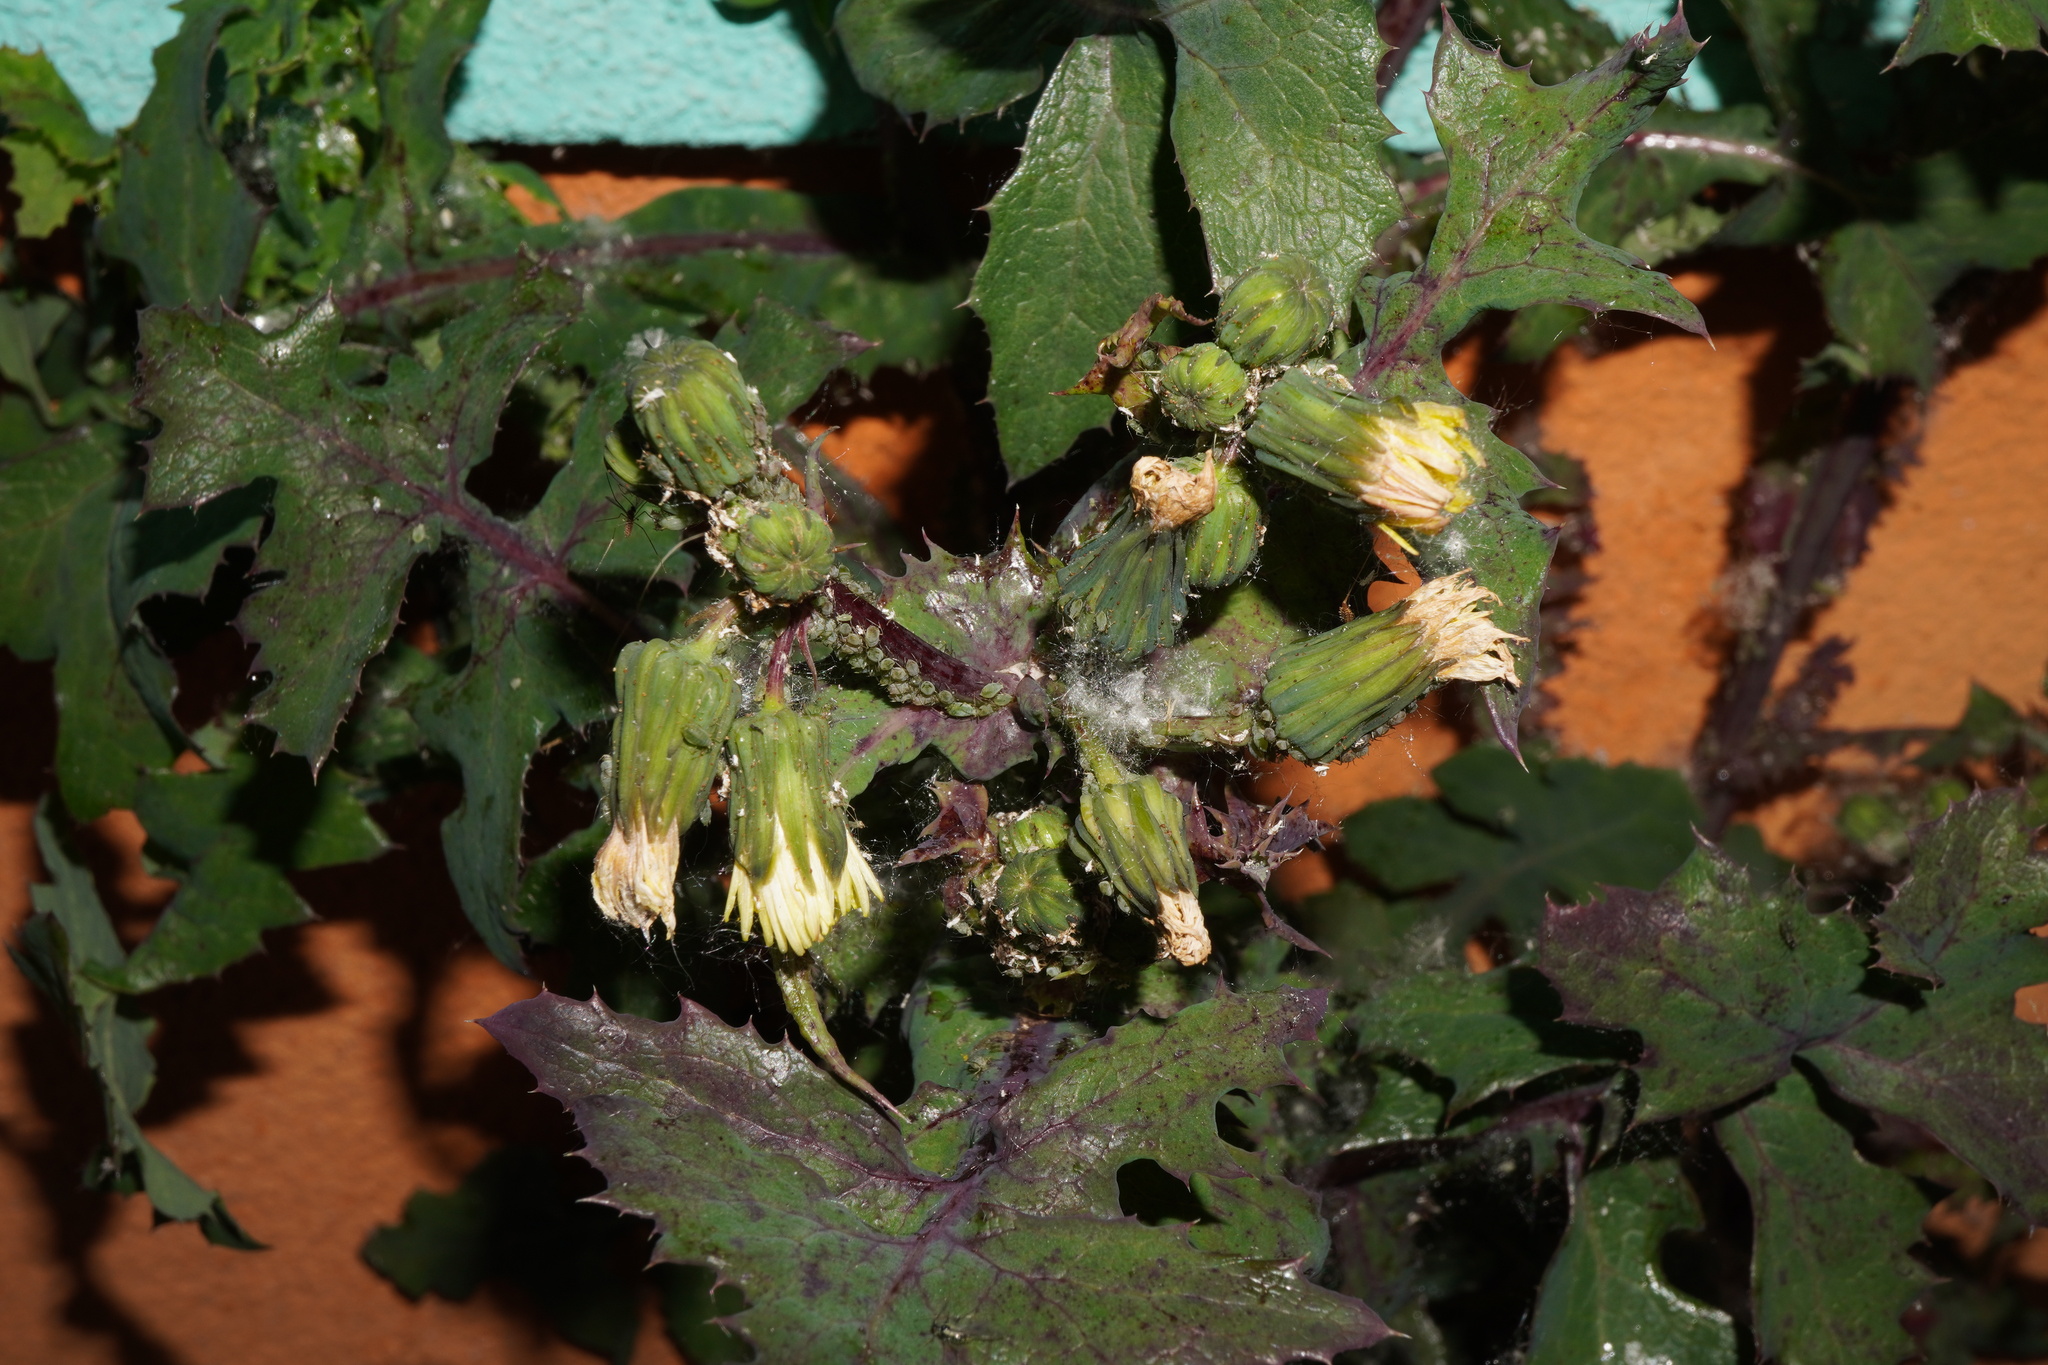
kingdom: Plantae
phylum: Tracheophyta
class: Magnoliopsida
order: Asterales
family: Asteraceae
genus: Sonchus
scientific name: Sonchus oleraceus
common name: Common sowthistle
